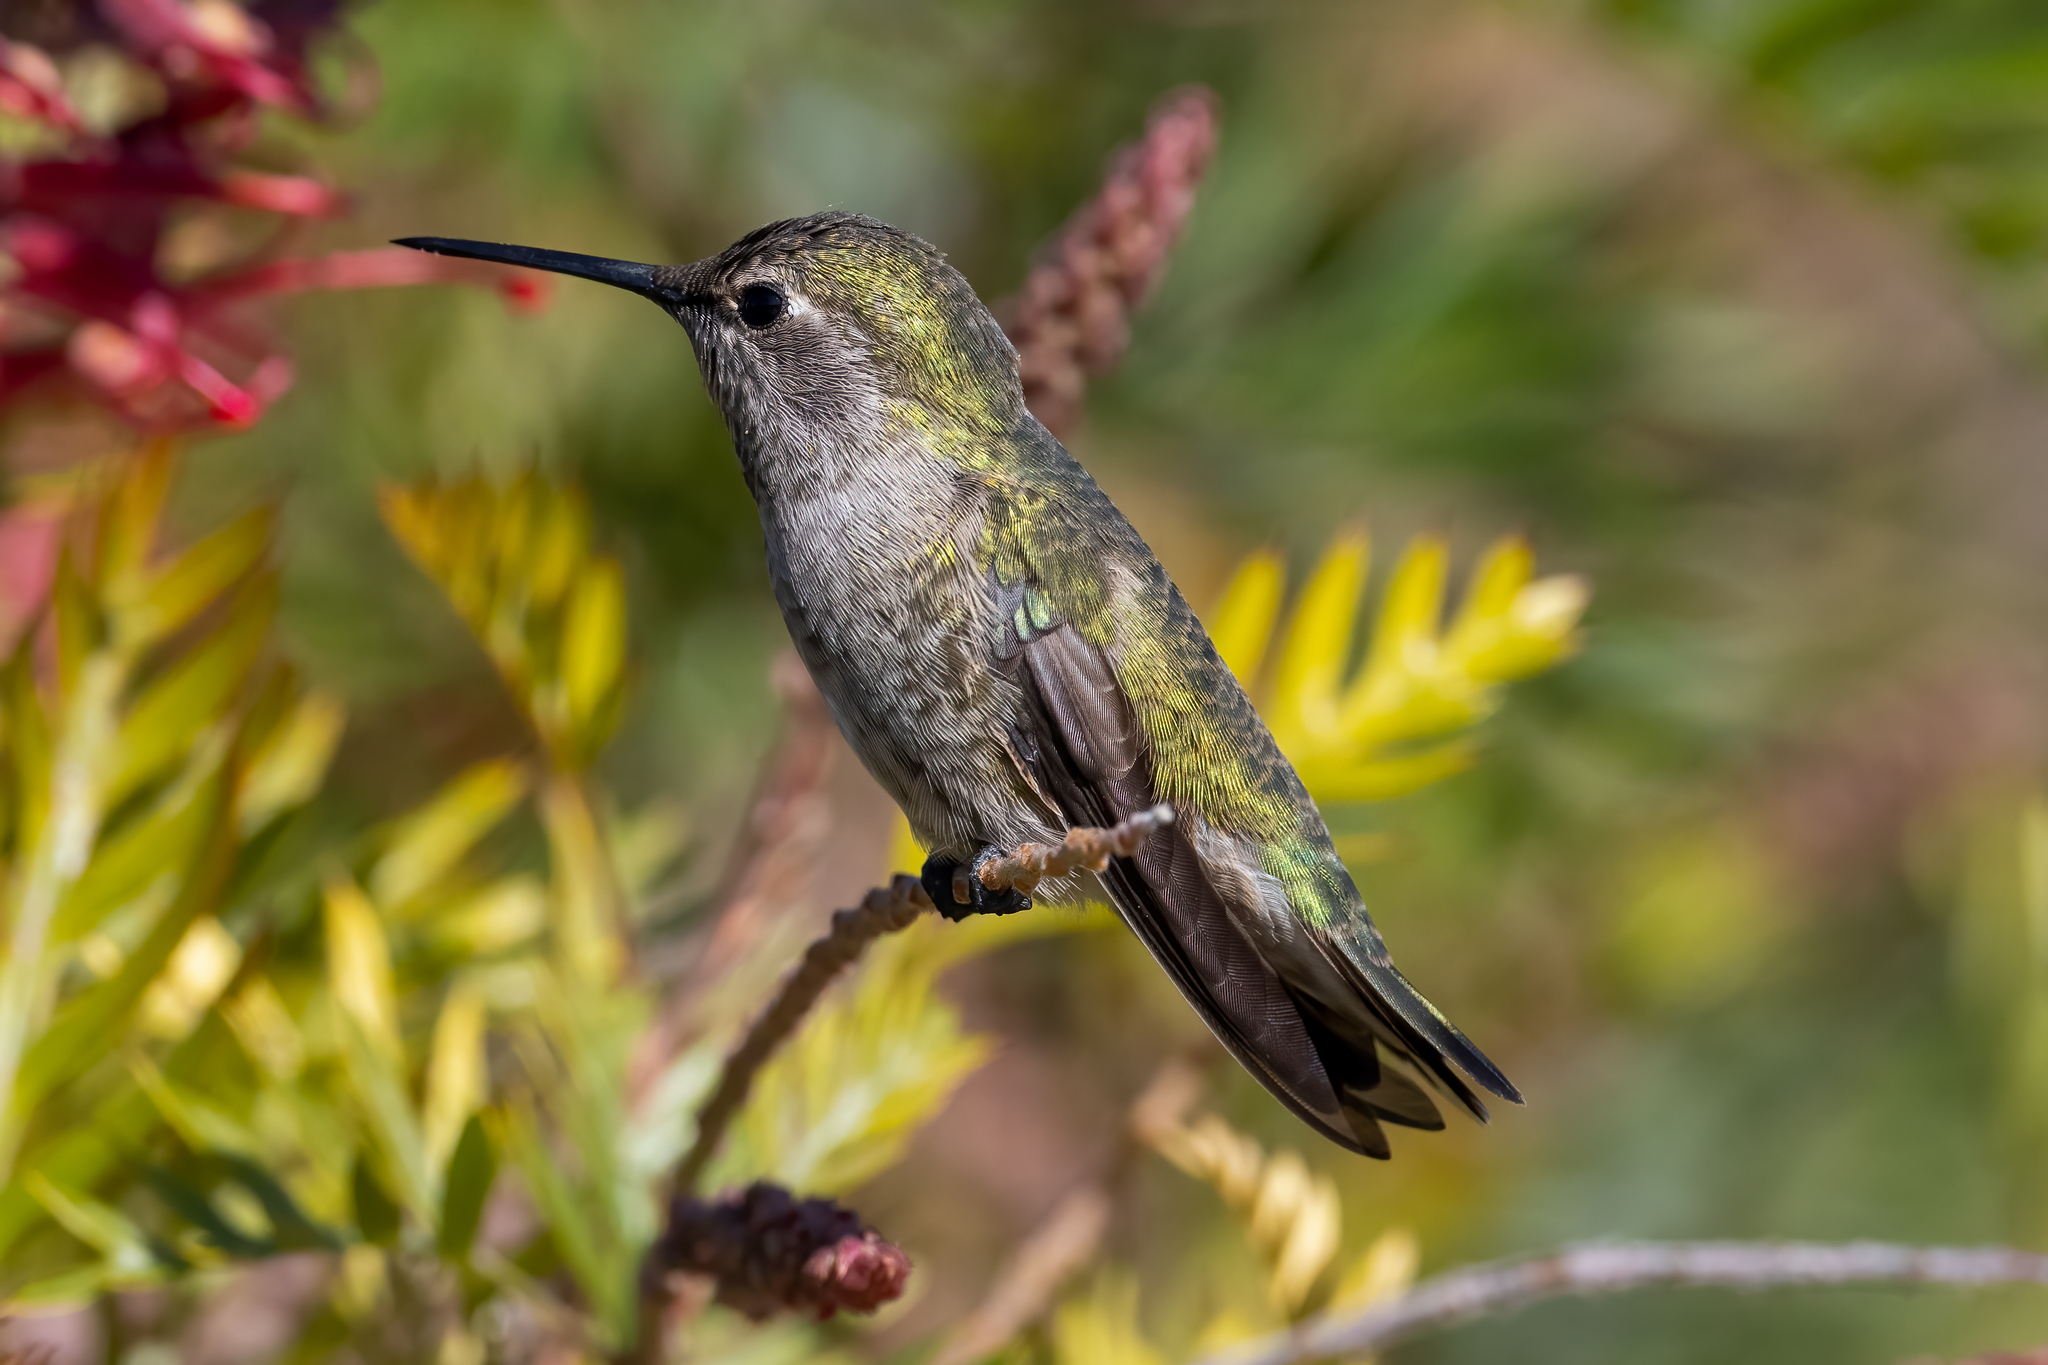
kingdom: Animalia
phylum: Chordata
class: Aves
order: Apodiformes
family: Trochilidae
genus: Calypte
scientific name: Calypte anna
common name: Anna's hummingbird
